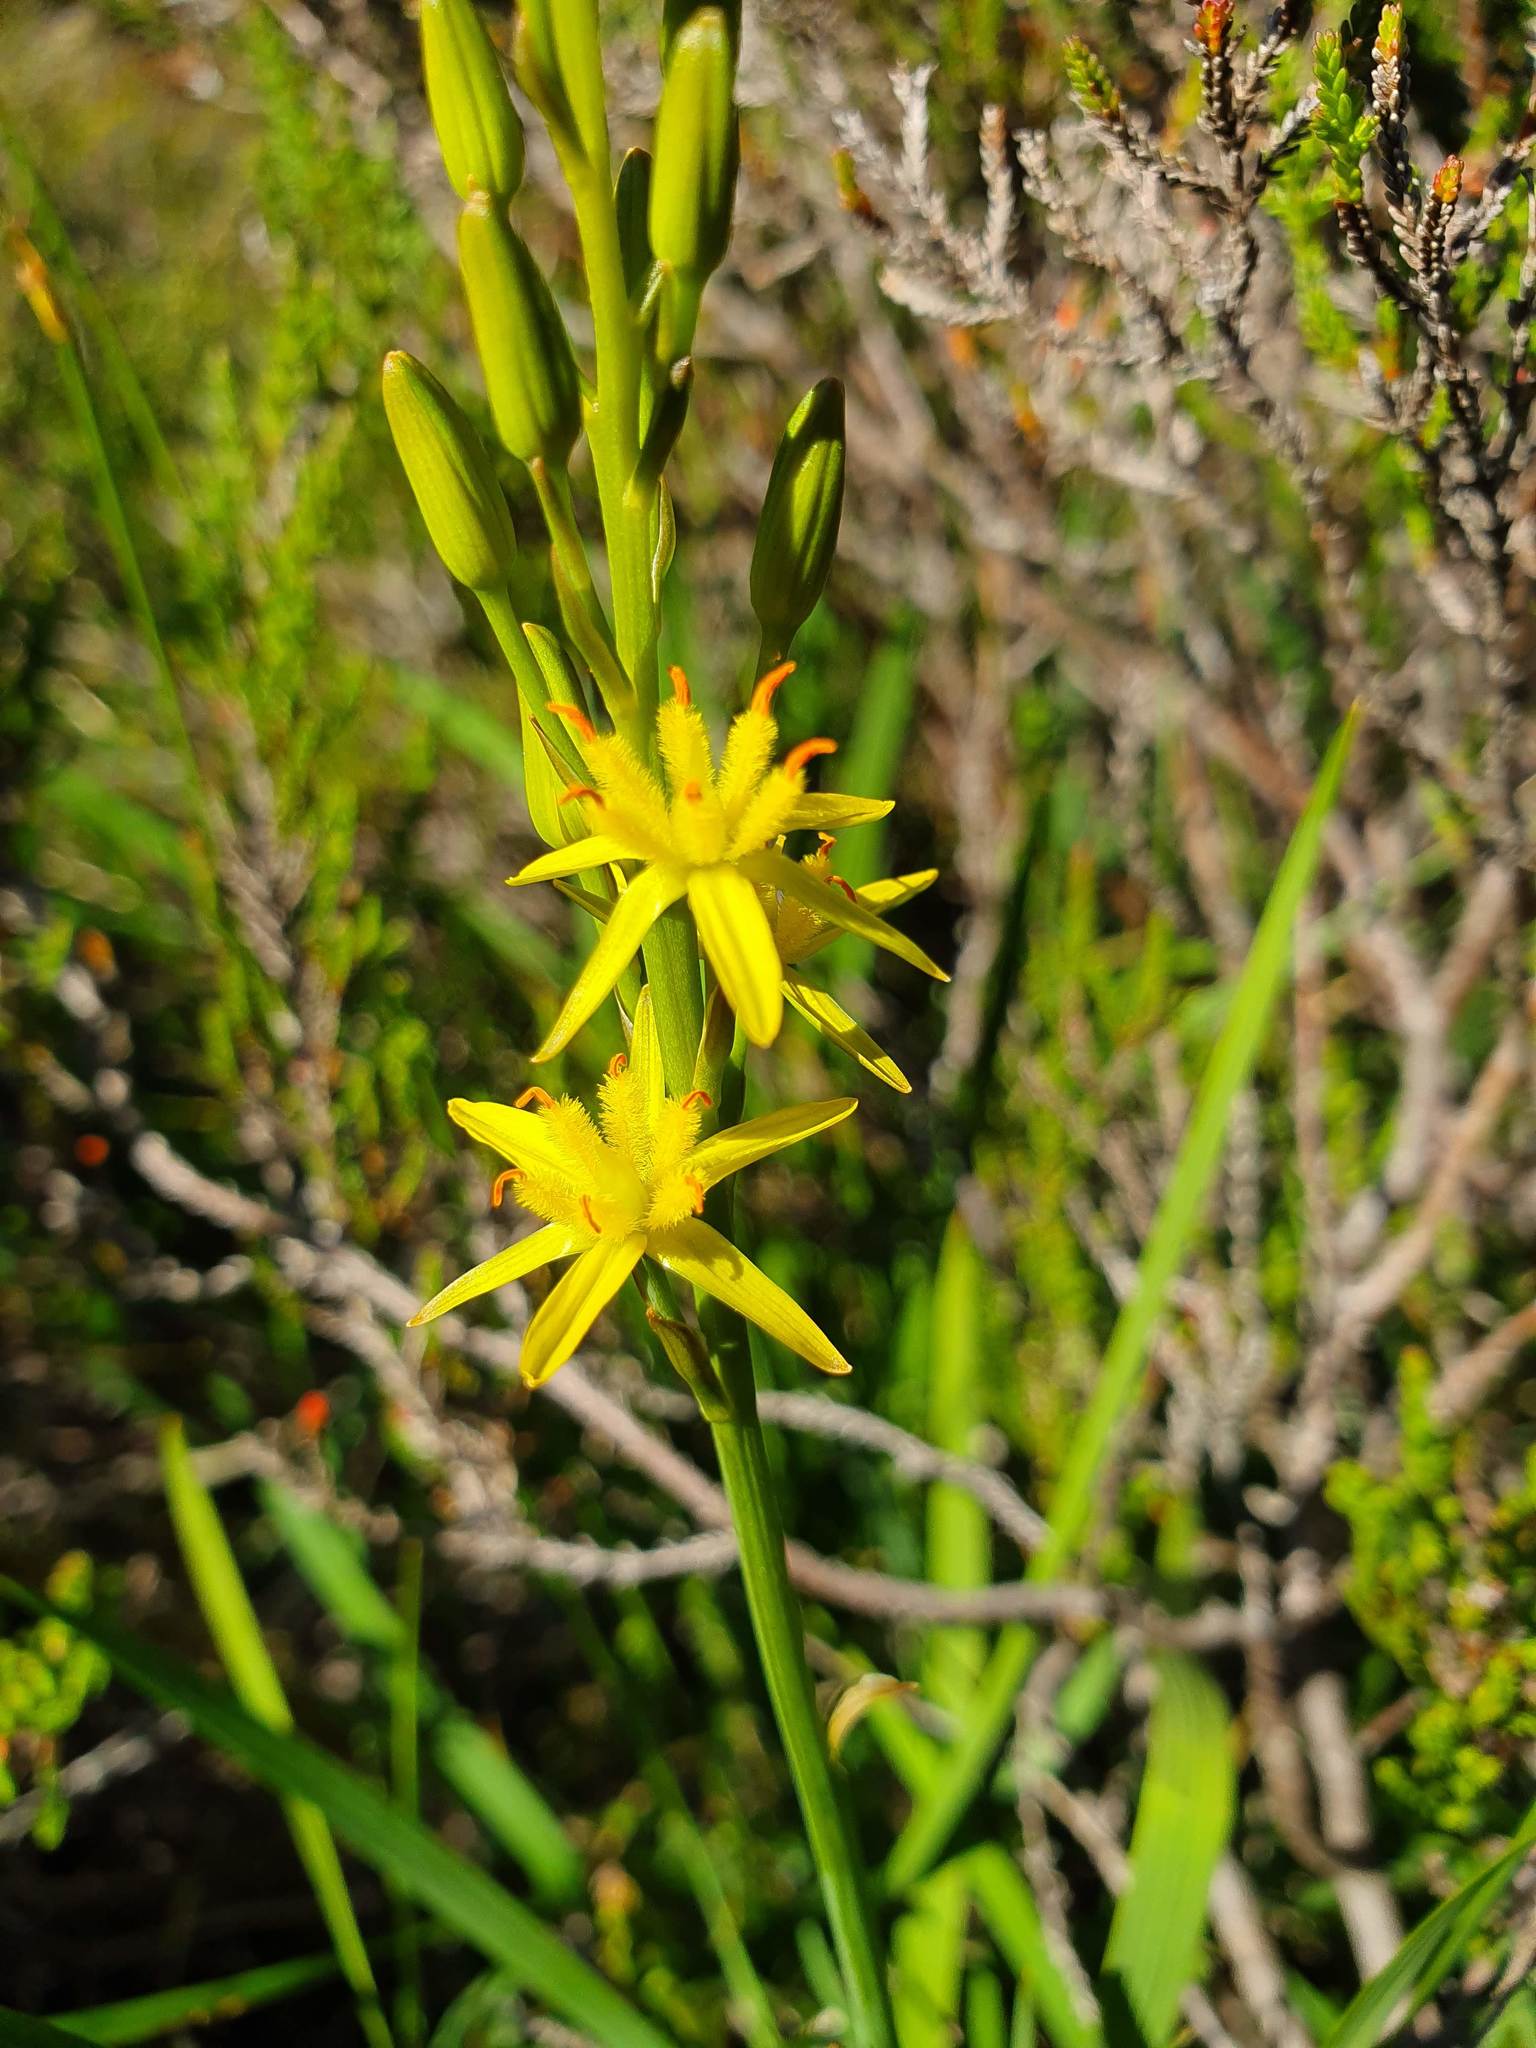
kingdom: Plantae
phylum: Tracheophyta
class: Liliopsida
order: Dioscoreales
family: Nartheciaceae
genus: Narthecium
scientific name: Narthecium ossifragum
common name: Bog asphodel
